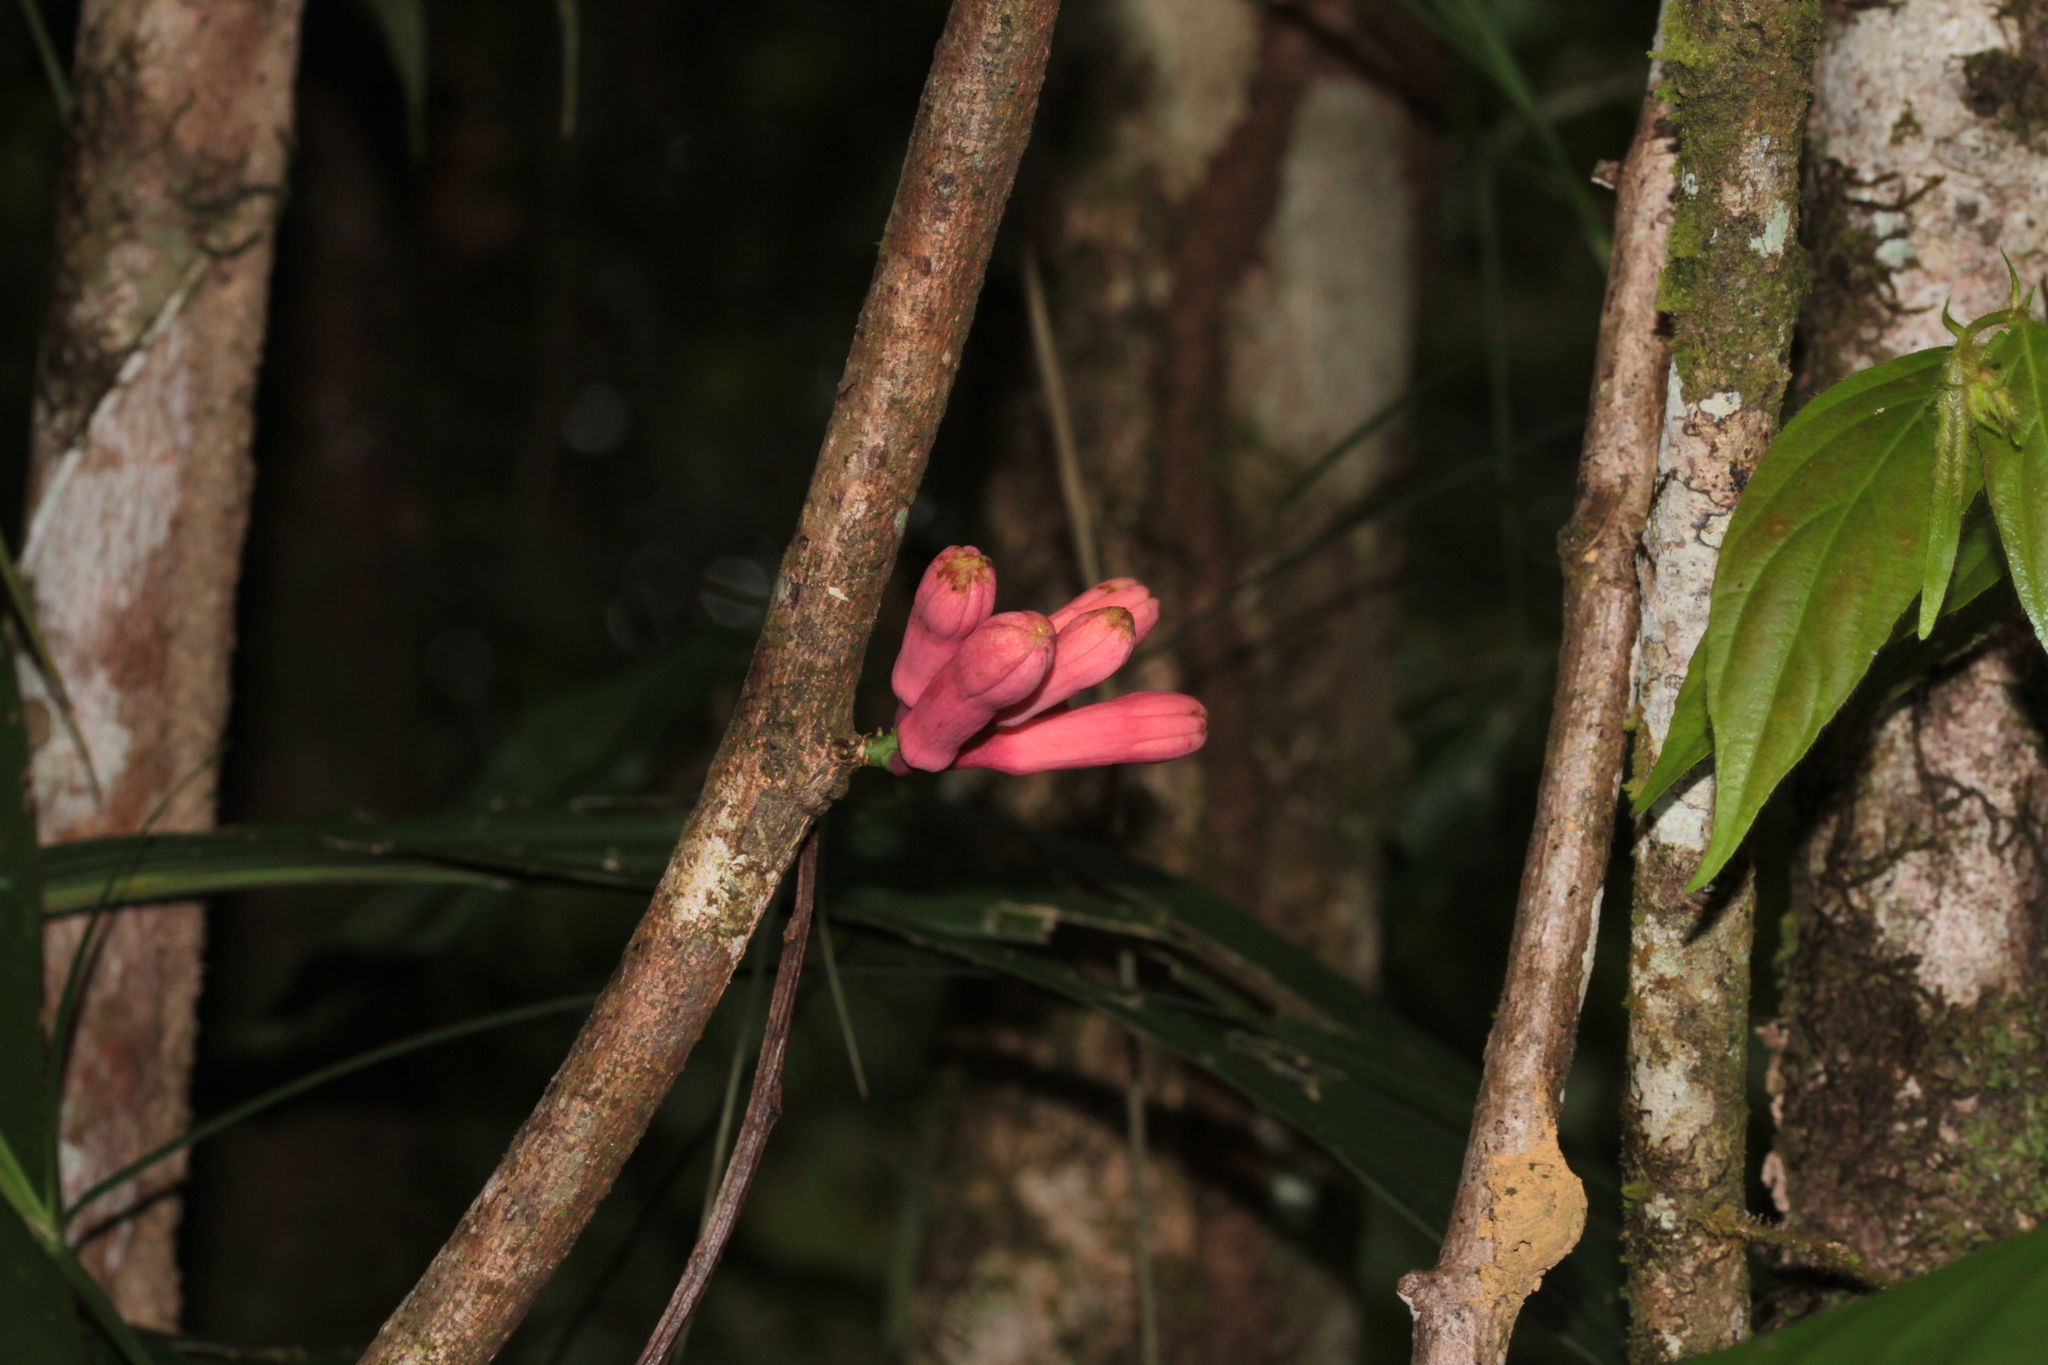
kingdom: Plantae
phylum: Tracheophyta
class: Magnoliopsida
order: Malpighiales
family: Passifloraceae
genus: Passiflora
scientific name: Passiflora amoena
